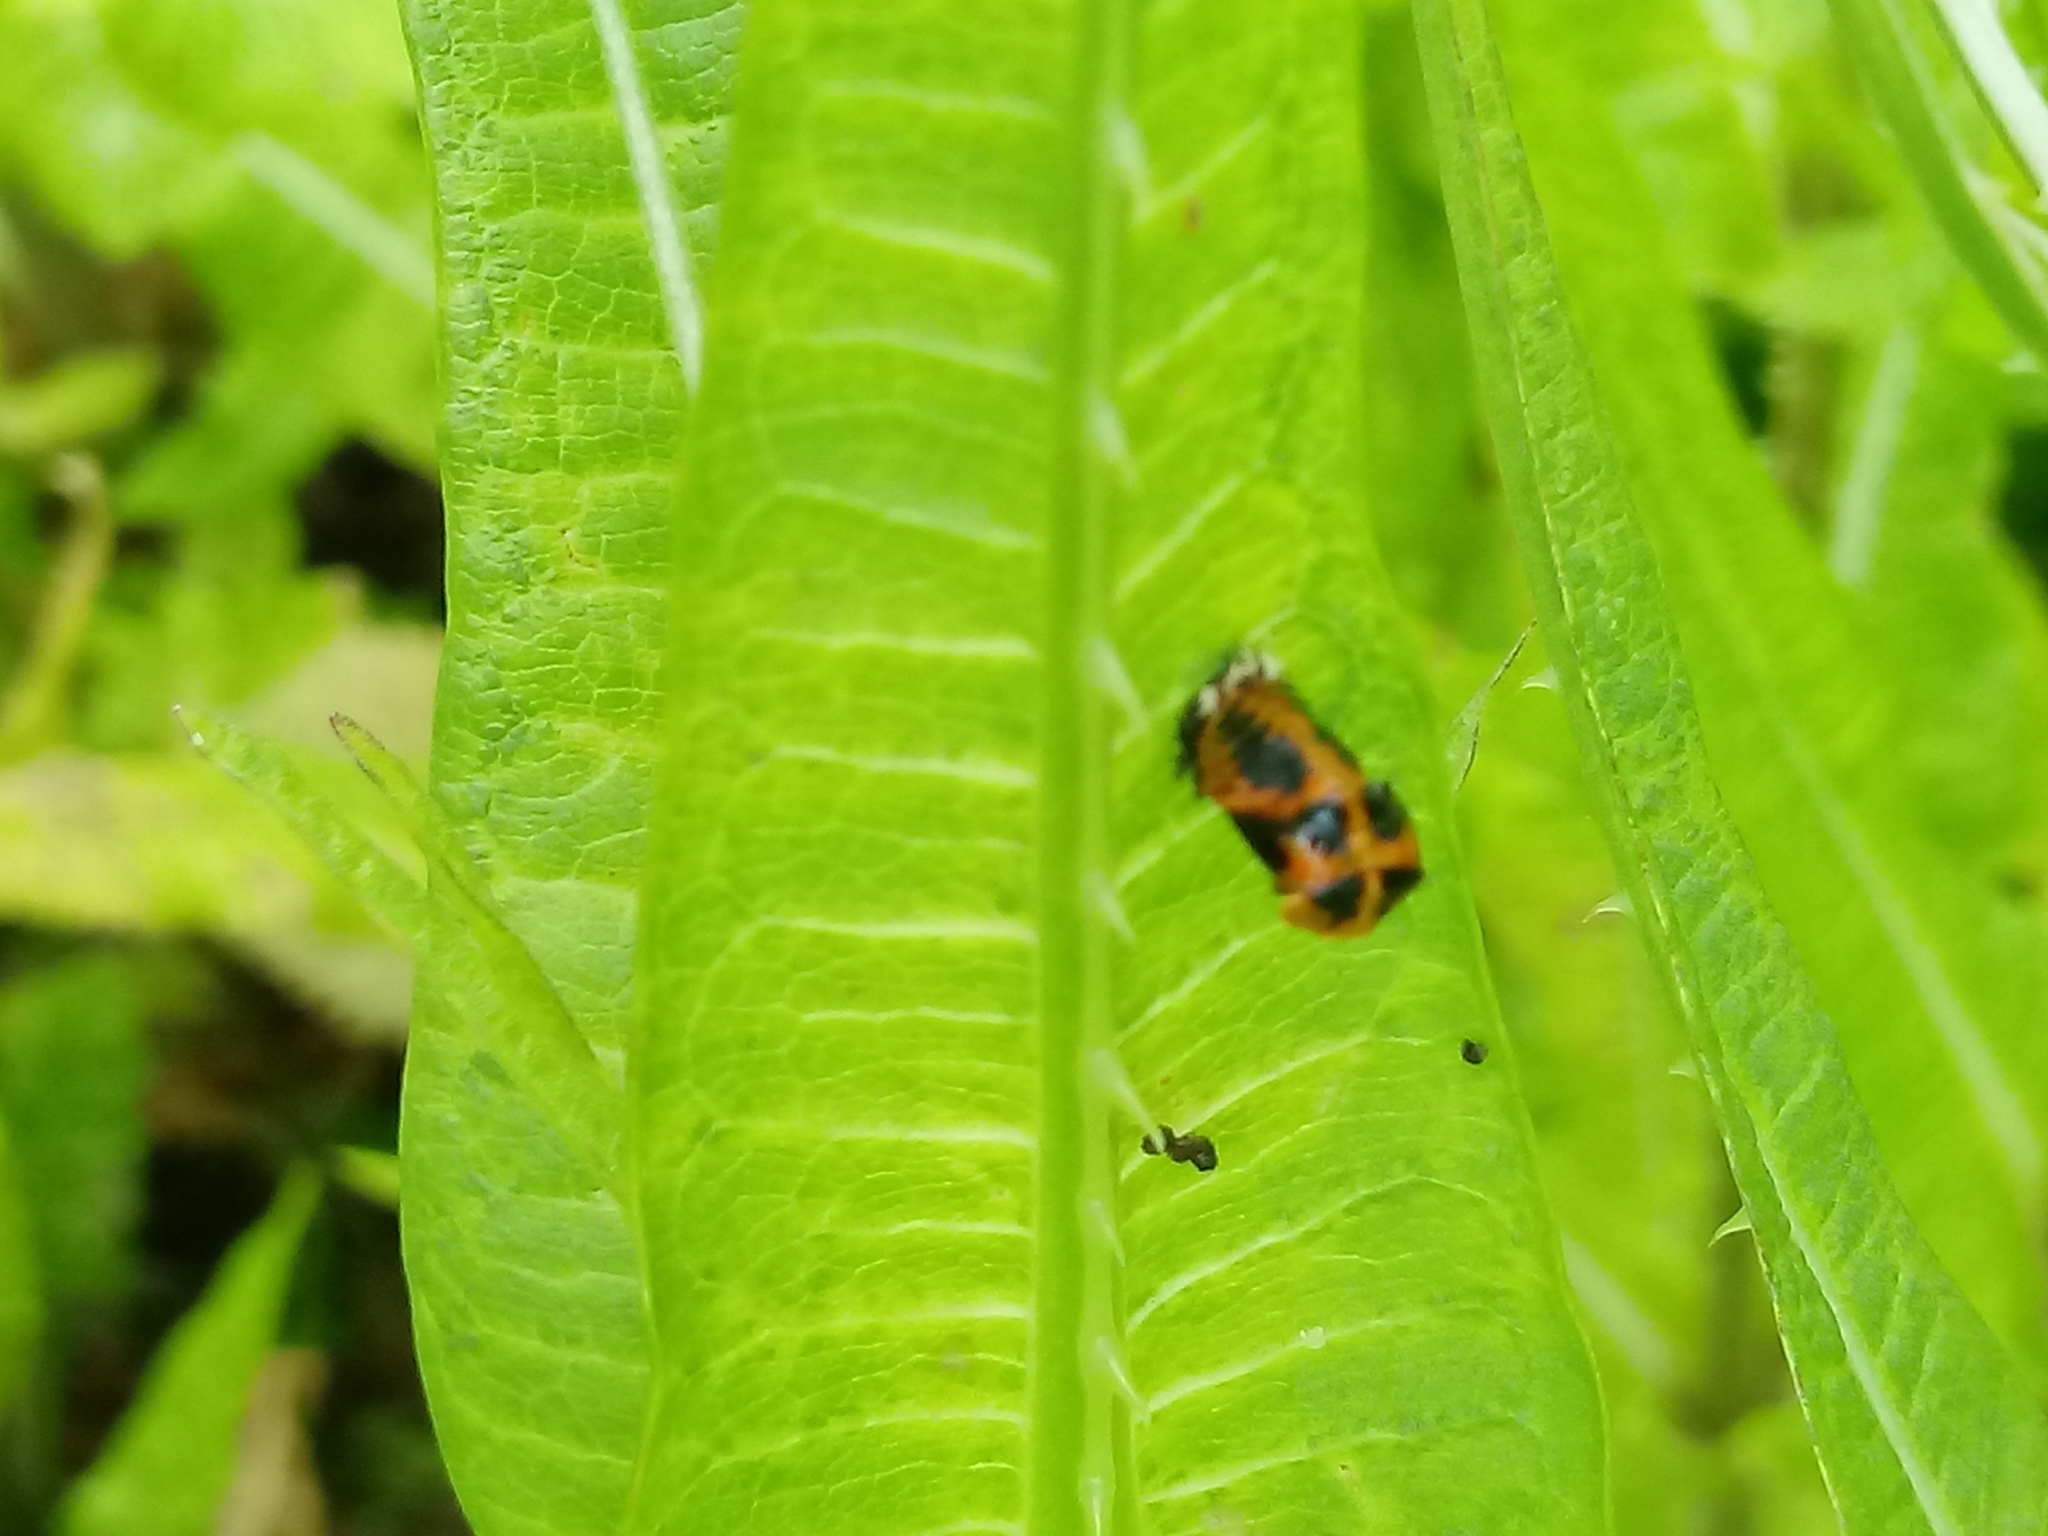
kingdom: Animalia
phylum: Arthropoda
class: Insecta
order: Coleoptera
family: Coccinellidae
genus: Harmonia
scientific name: Harmonia axyridis
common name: Harlequin ladybird
